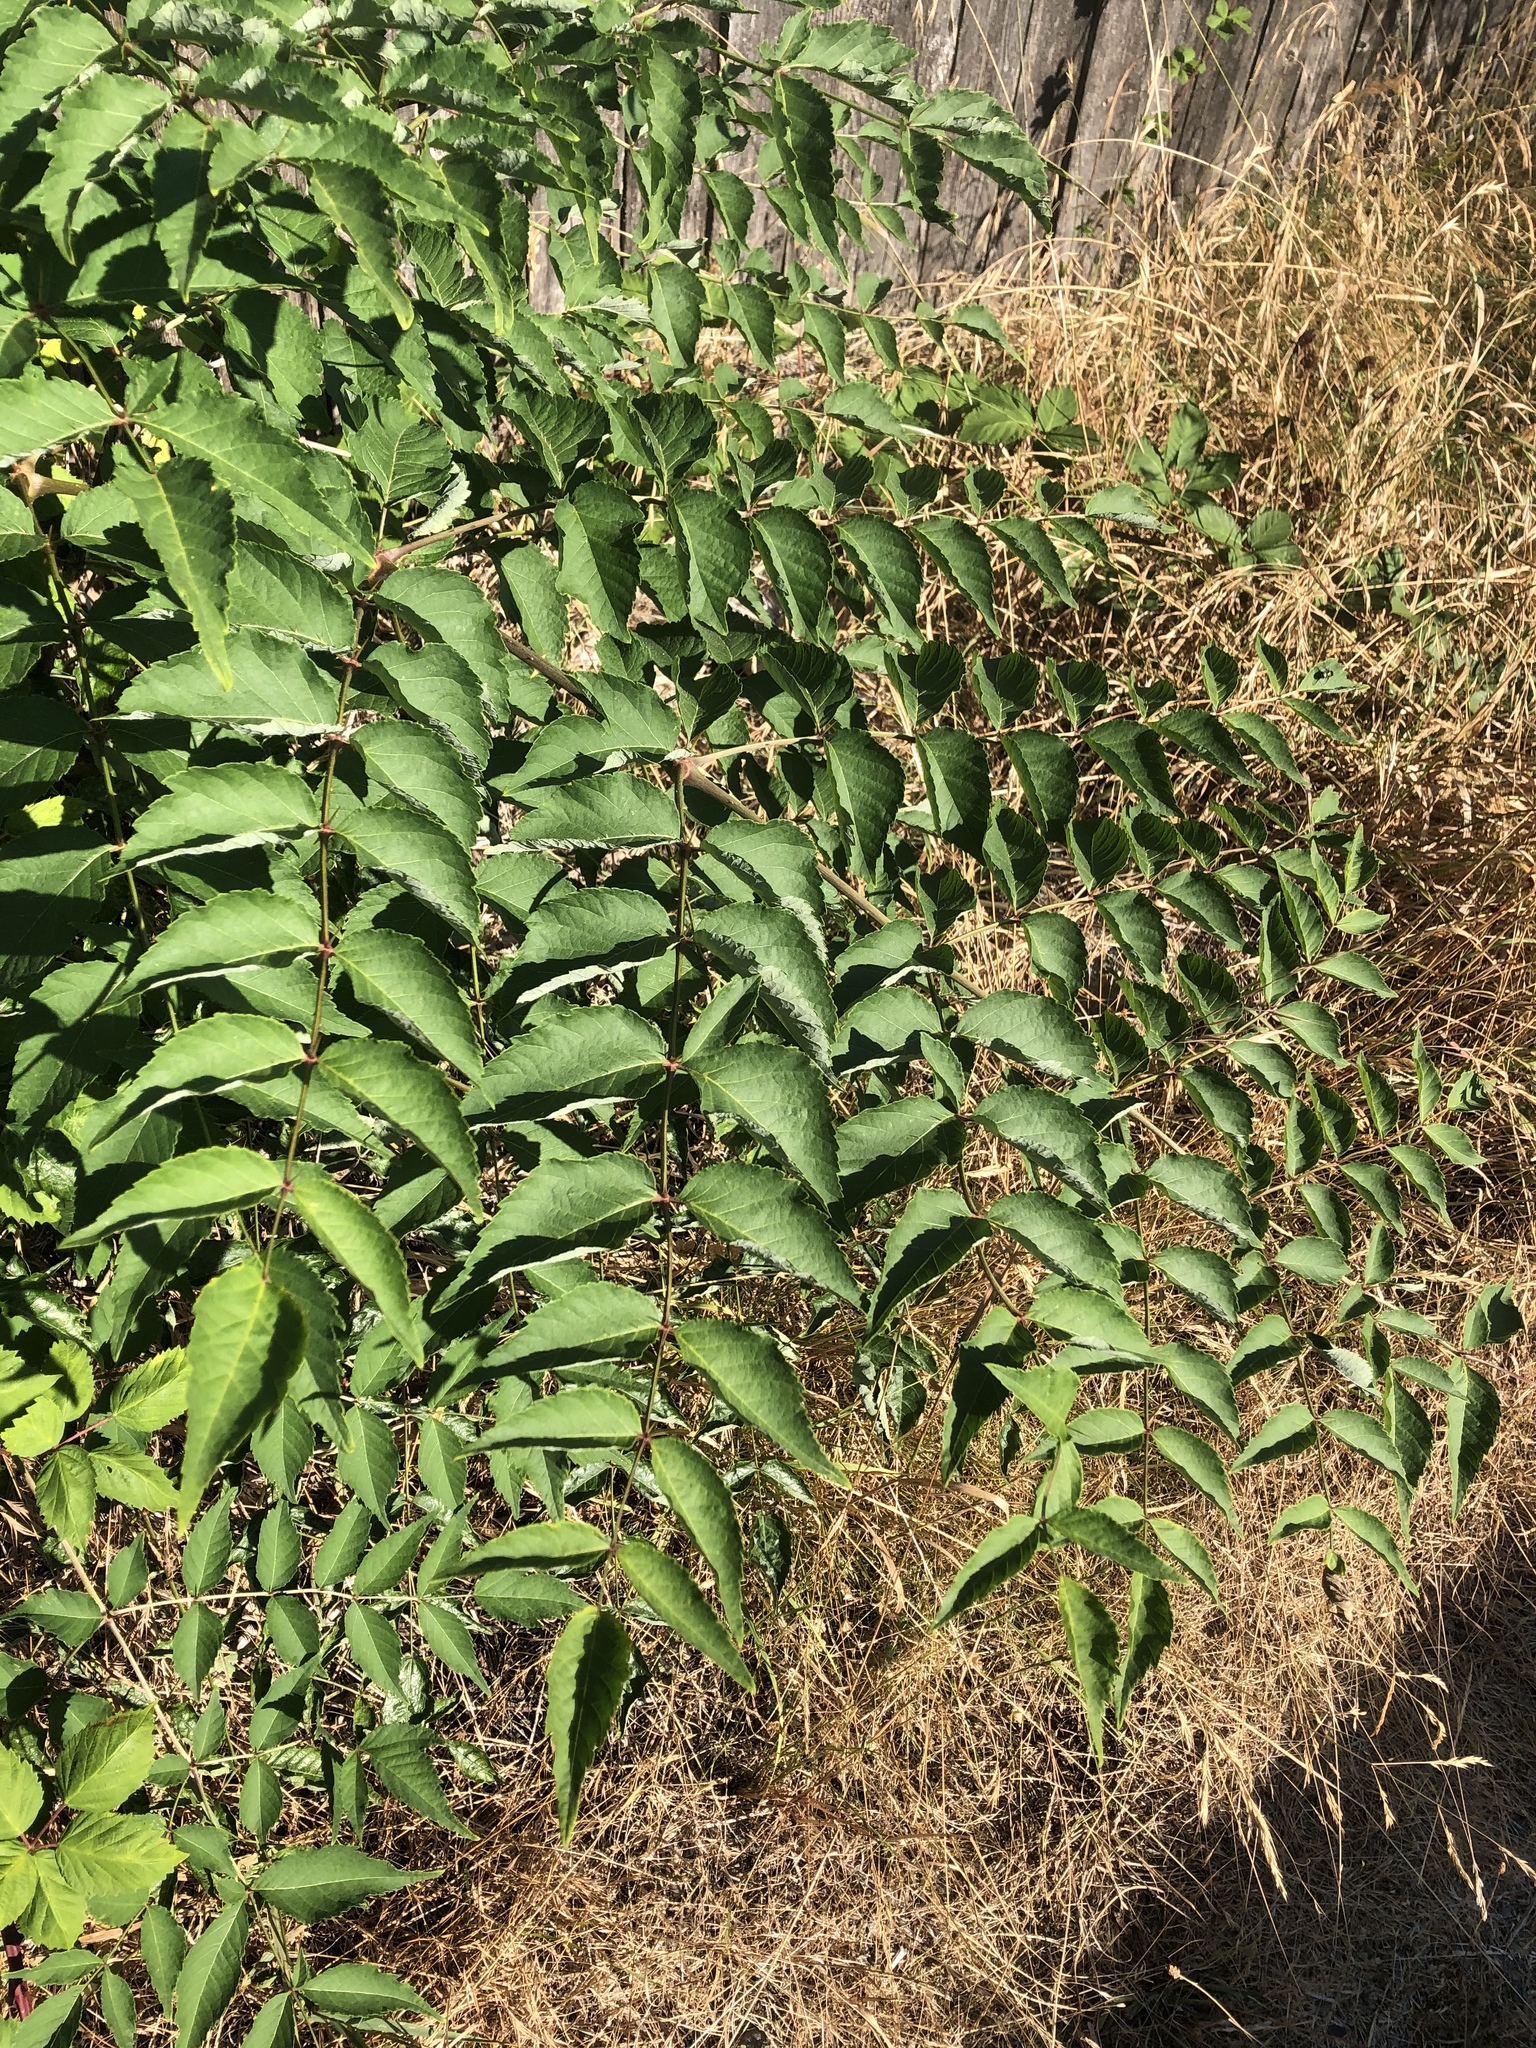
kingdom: Plantae
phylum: Tracheophyta
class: Magnoliopsida
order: Apiales
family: Araliaceae
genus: Aralia
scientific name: Aralia elata
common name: Japanese angelica-tree
